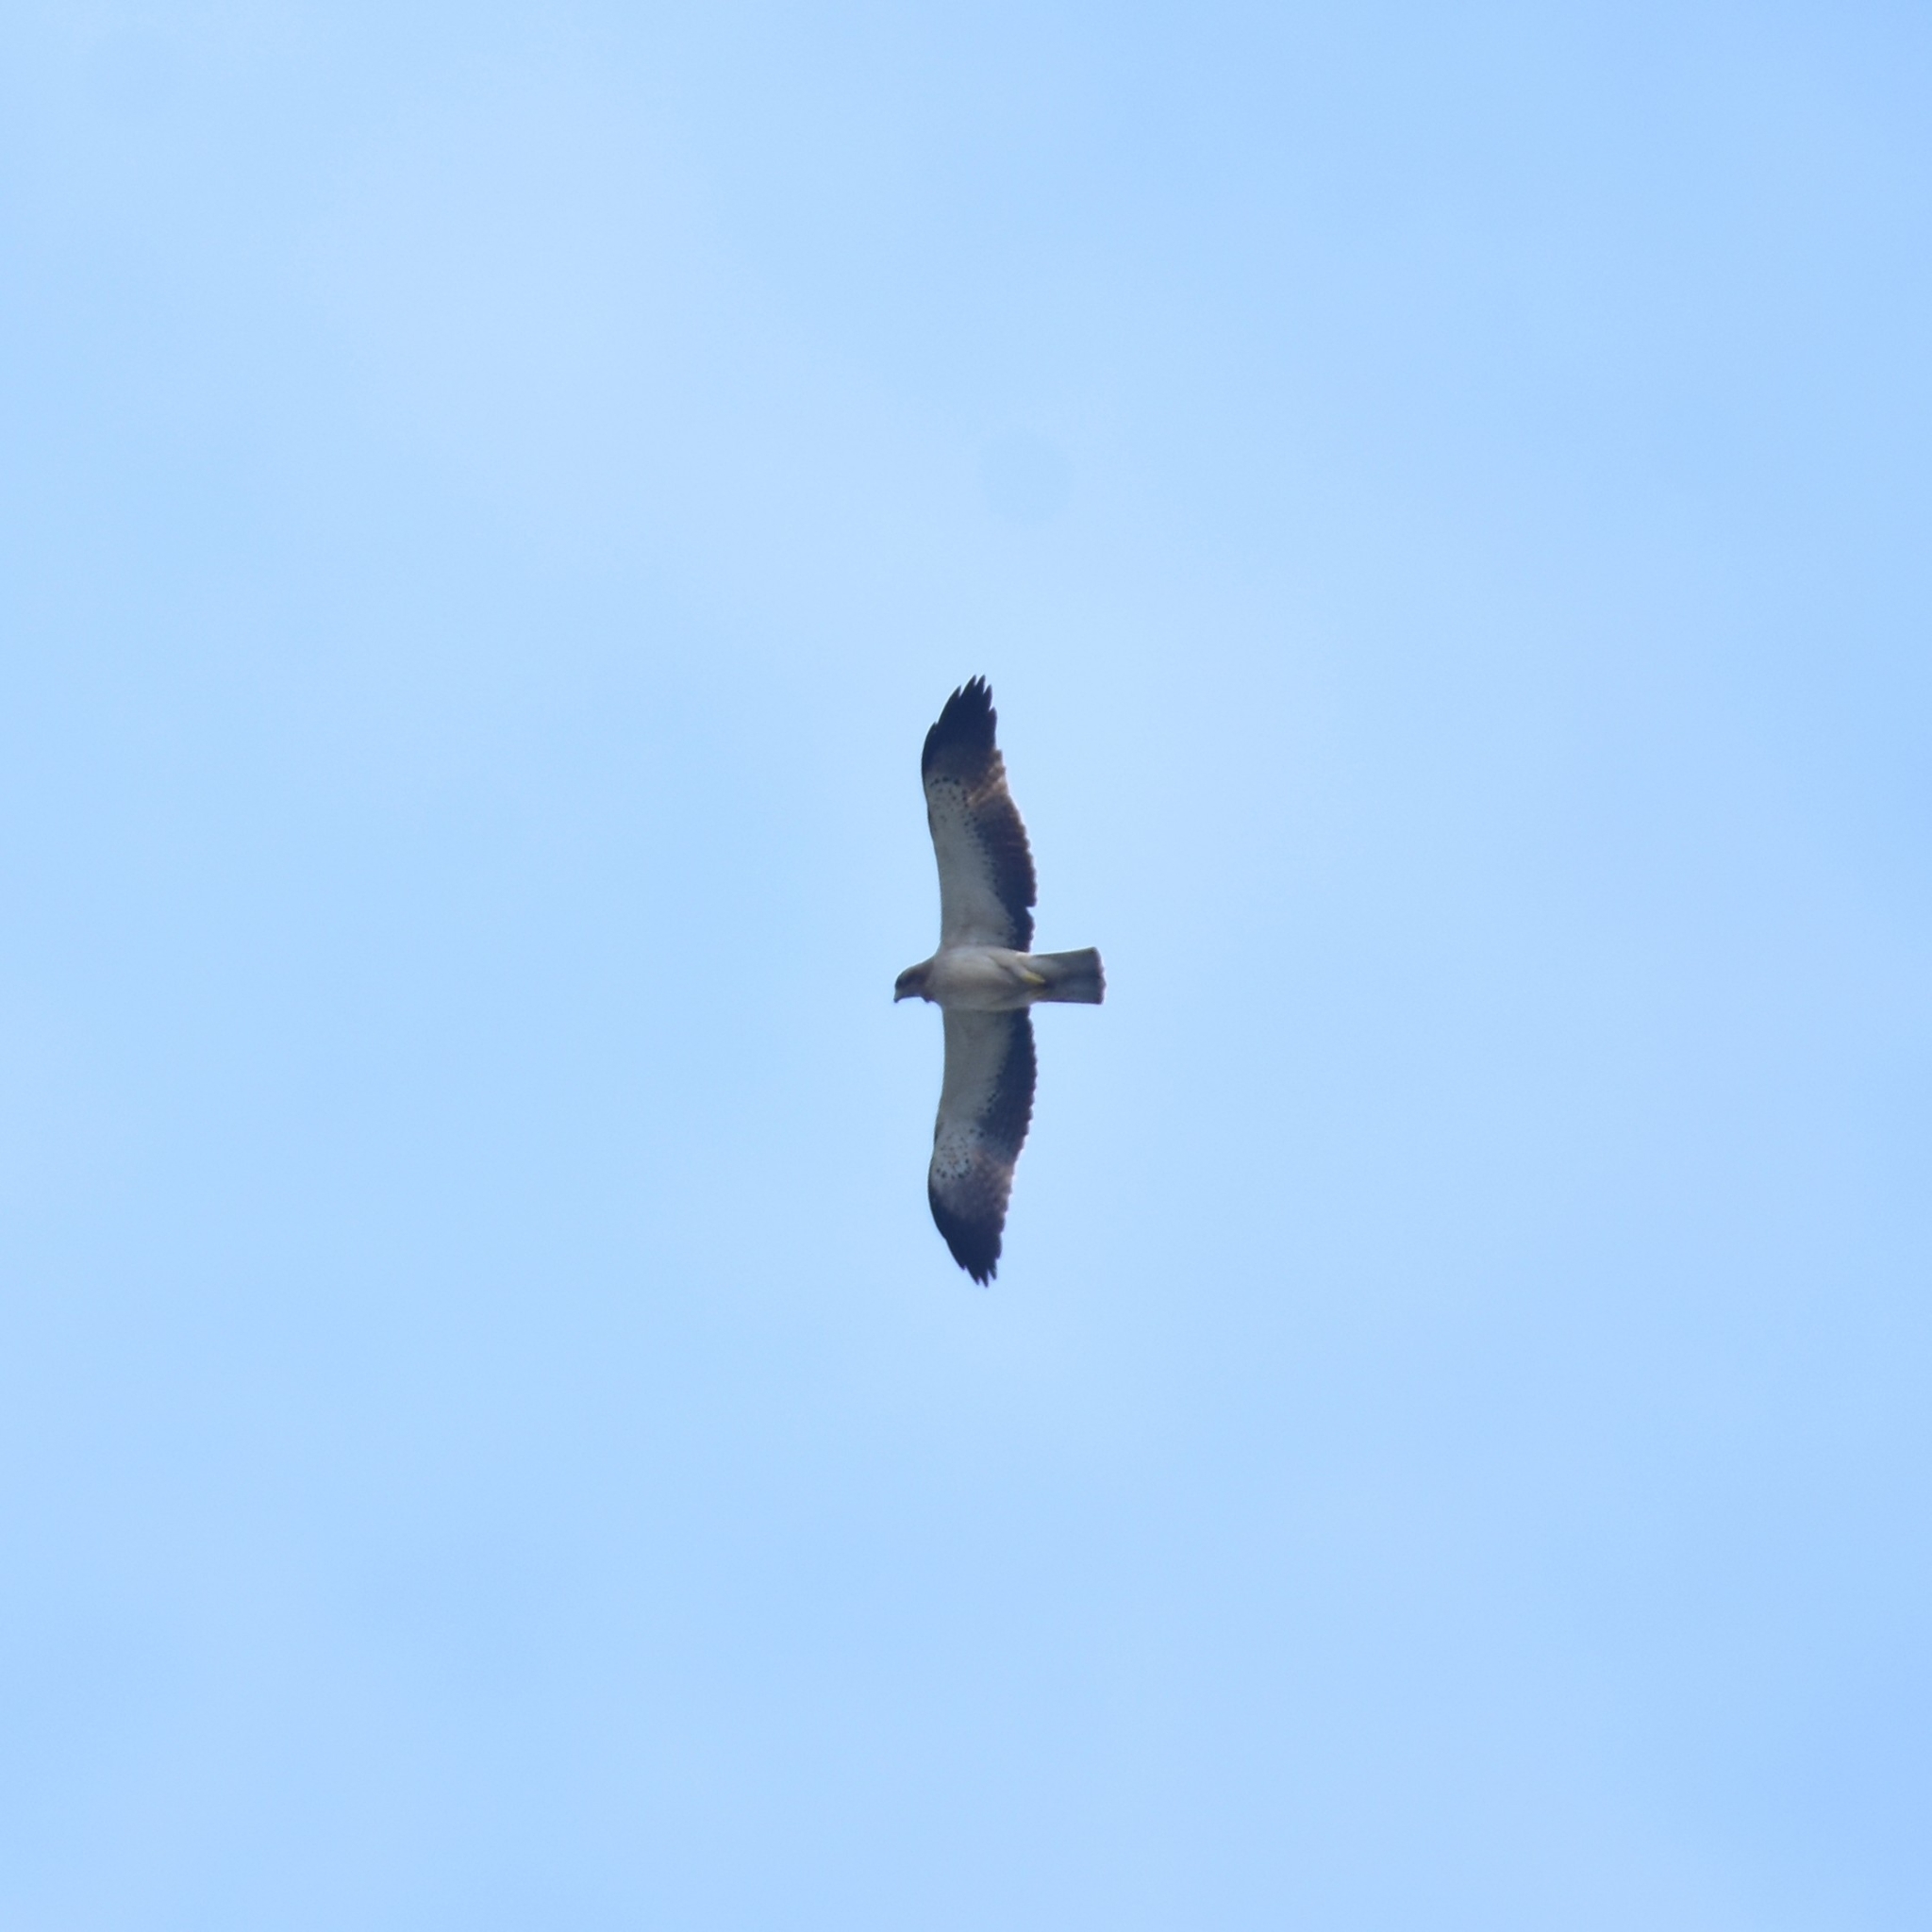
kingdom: Animalia
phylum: Chordata
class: Aves
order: Accipitriformes
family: Accipitridae
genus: Hieraaetus
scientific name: Hieraaetus pennatus
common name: Booted eagle
